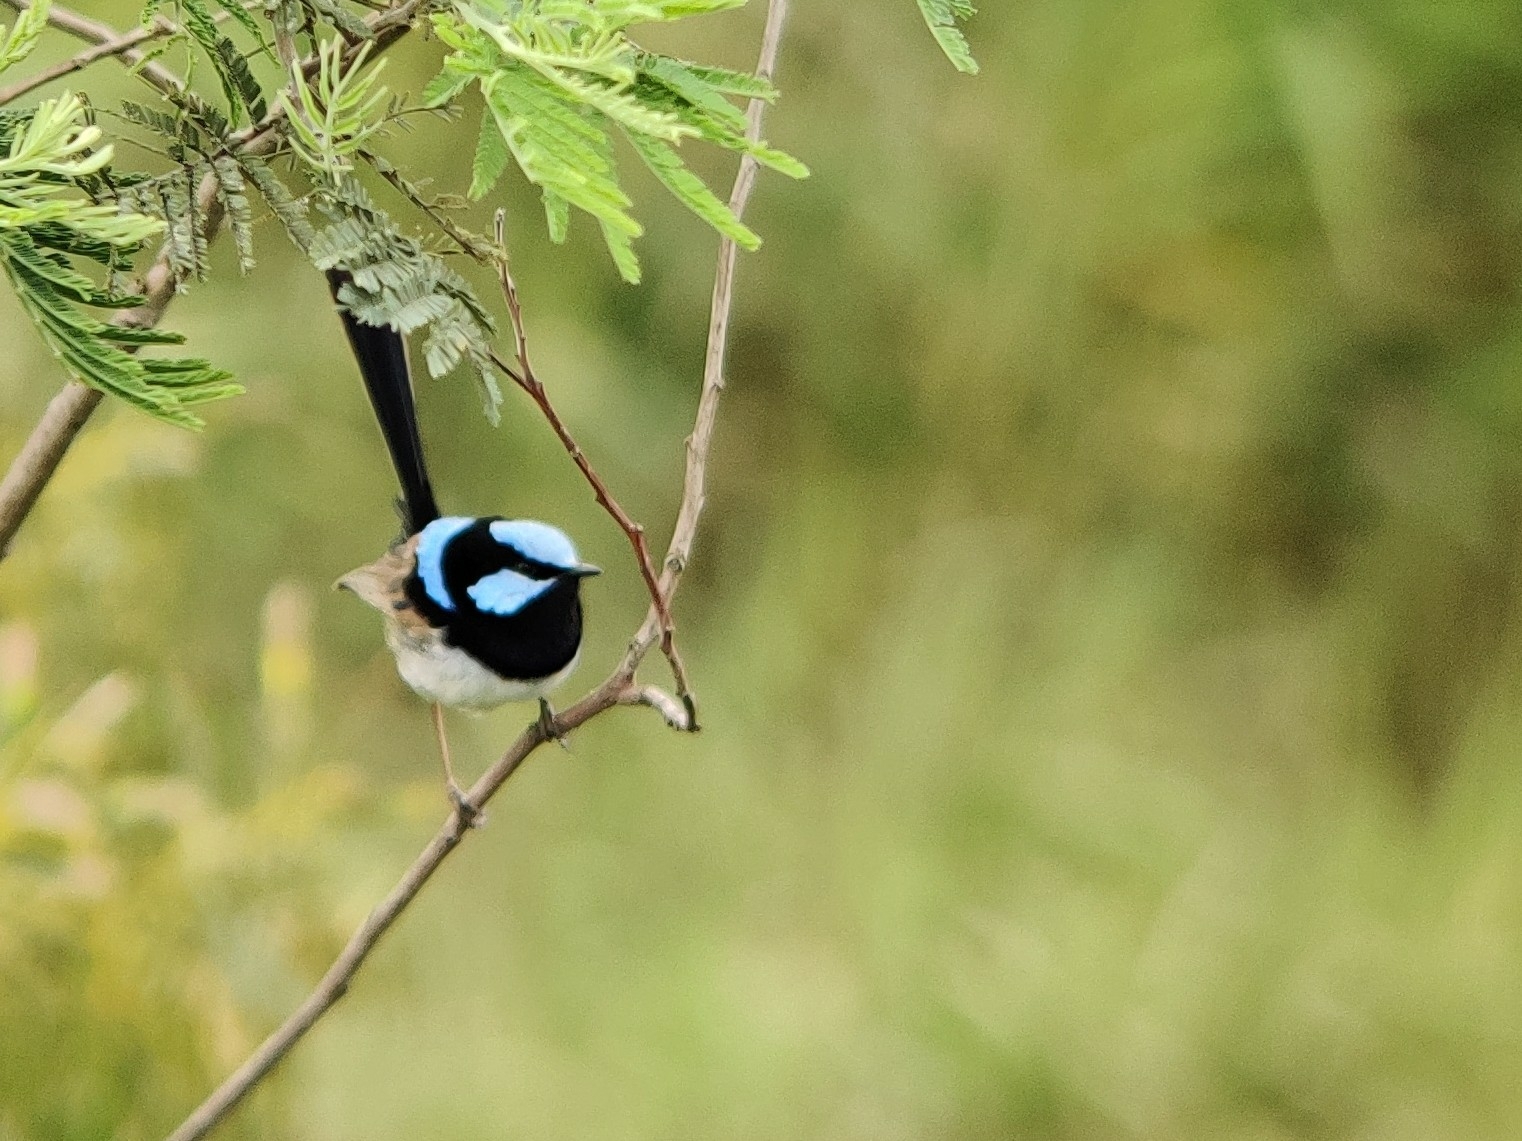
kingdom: Animalia
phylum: Chordata
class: Aves
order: Passeriformes
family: Maluridae
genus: Malurus
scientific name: Malurus cyaneus
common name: Superb fairywren
